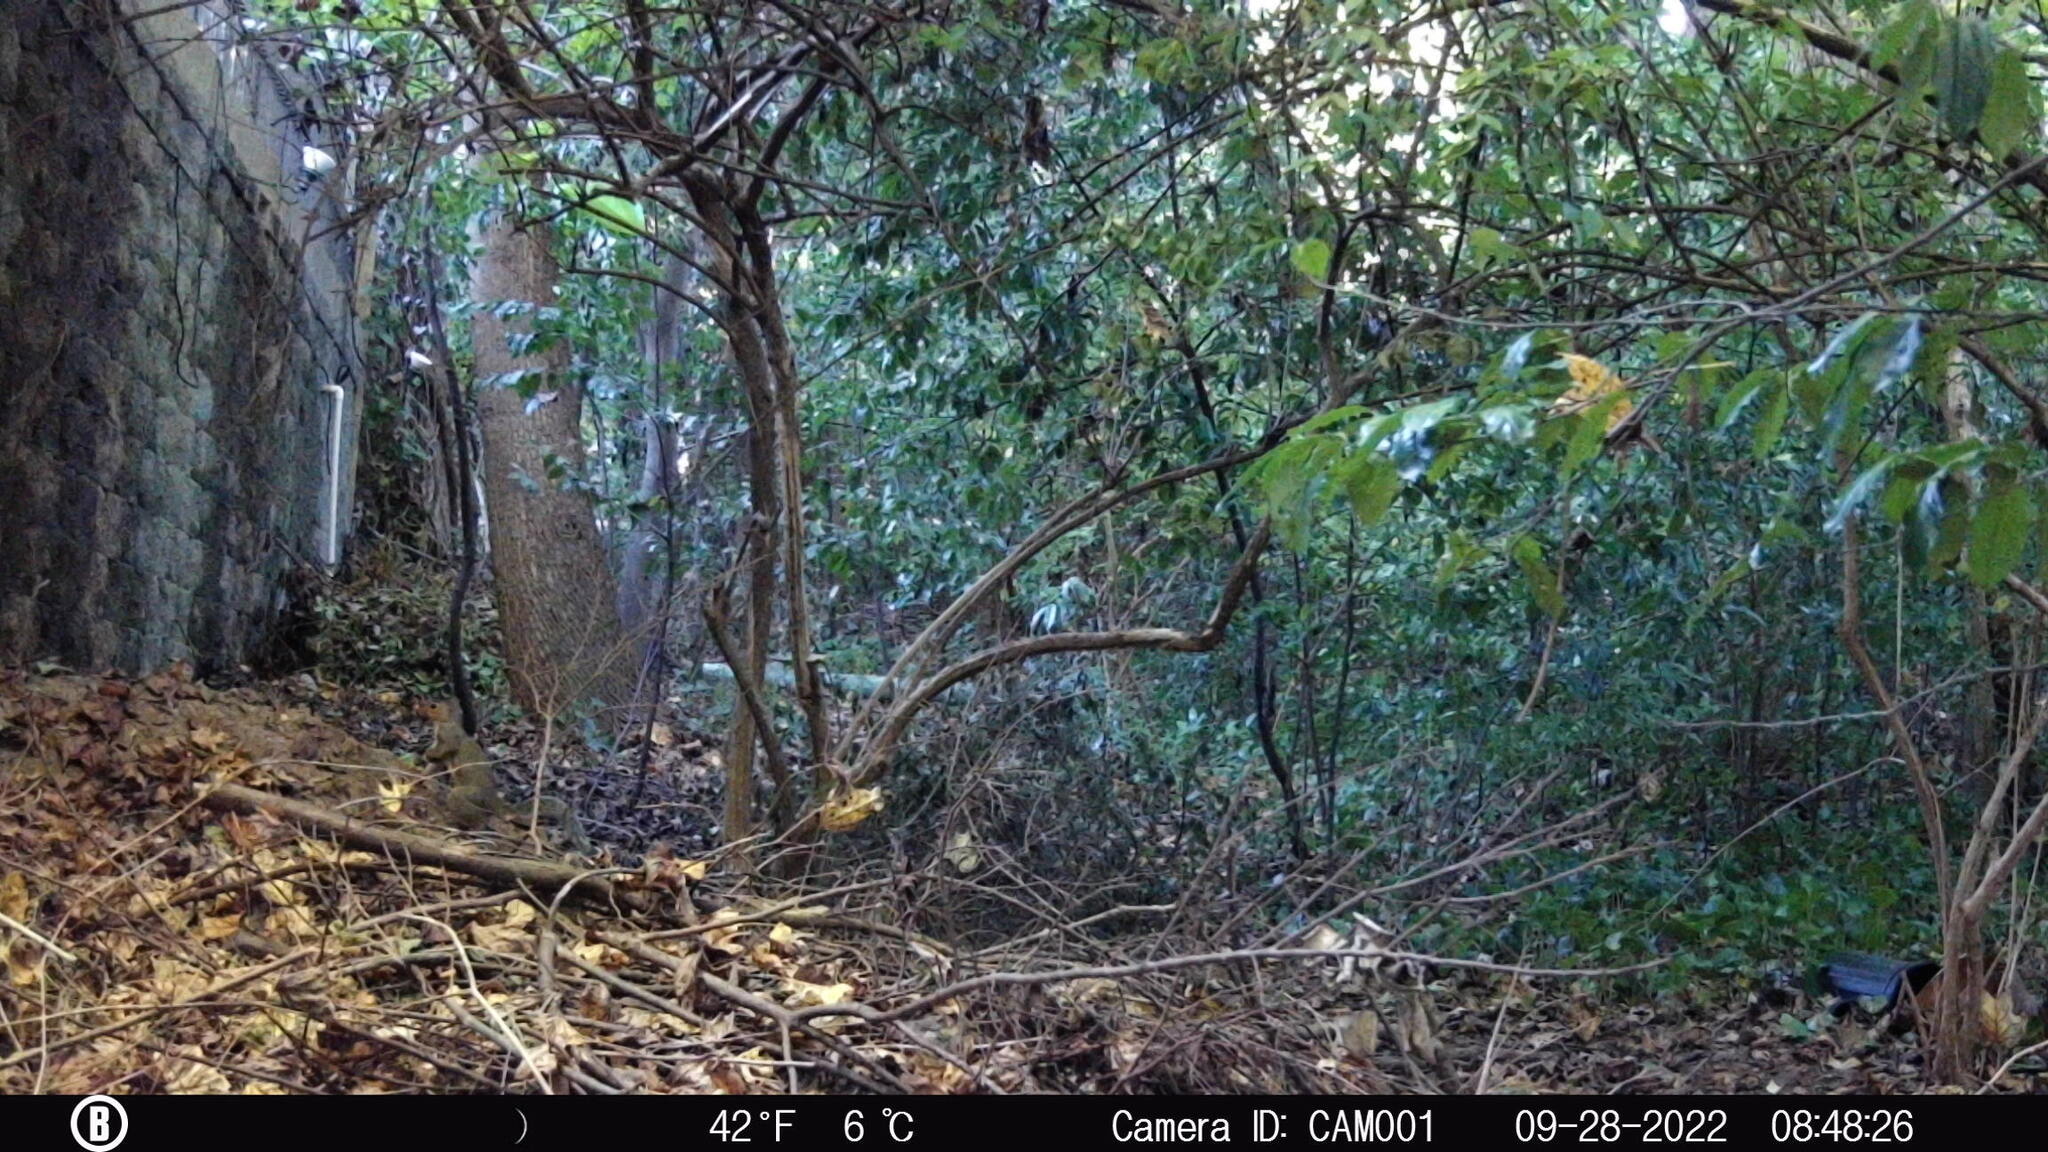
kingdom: Animalia
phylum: Chordata
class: Mammalia
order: Rodentia
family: Sciuridae
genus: Sciurus
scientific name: Sciurus carolinensis
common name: Eastern gray squirrel
